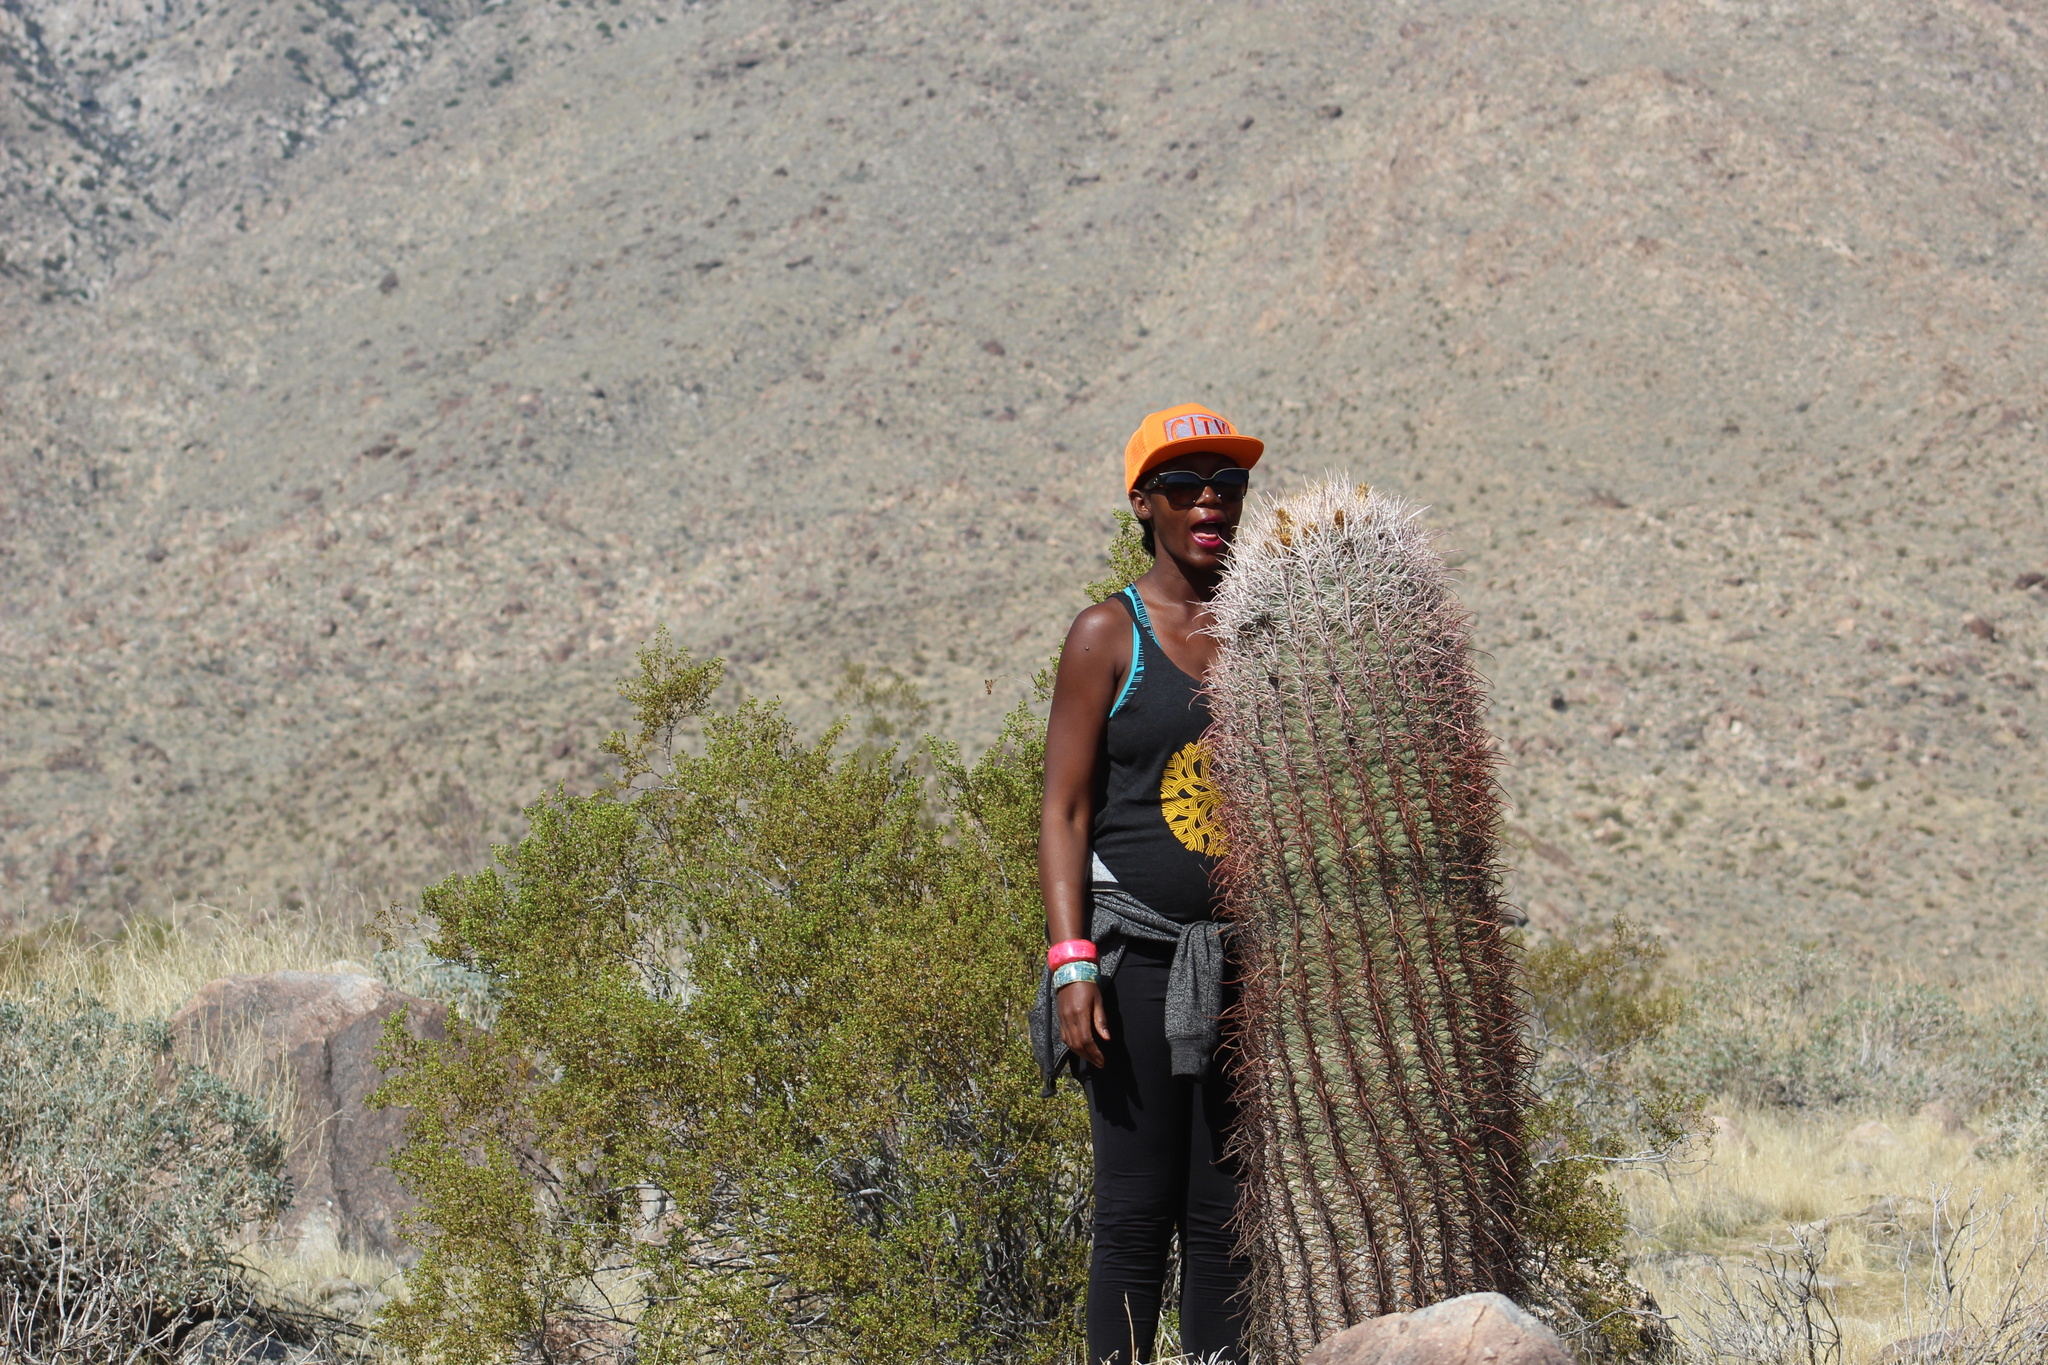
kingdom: Plantae
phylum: Tracheophyta
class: Magnoliopsida
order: Caryophyllales
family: Cactaceae
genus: Ferocactus
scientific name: Ferocactus cylindraceus
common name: California barrel cactus
